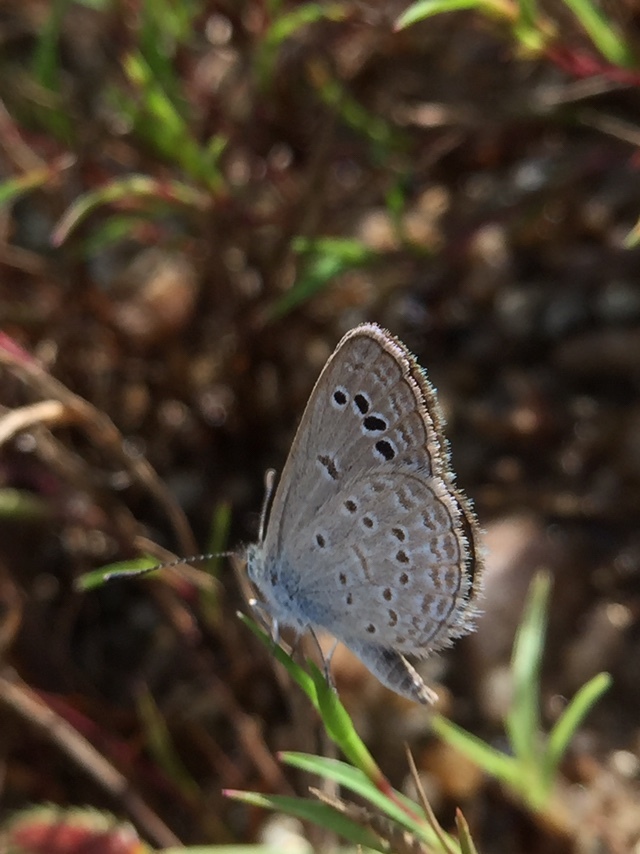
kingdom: Animalia
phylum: Arthropoda
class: Insecta
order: Lepidoptera
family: Lycaenidae
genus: Zizina
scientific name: Zizina otis
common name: Lesser grass blue
